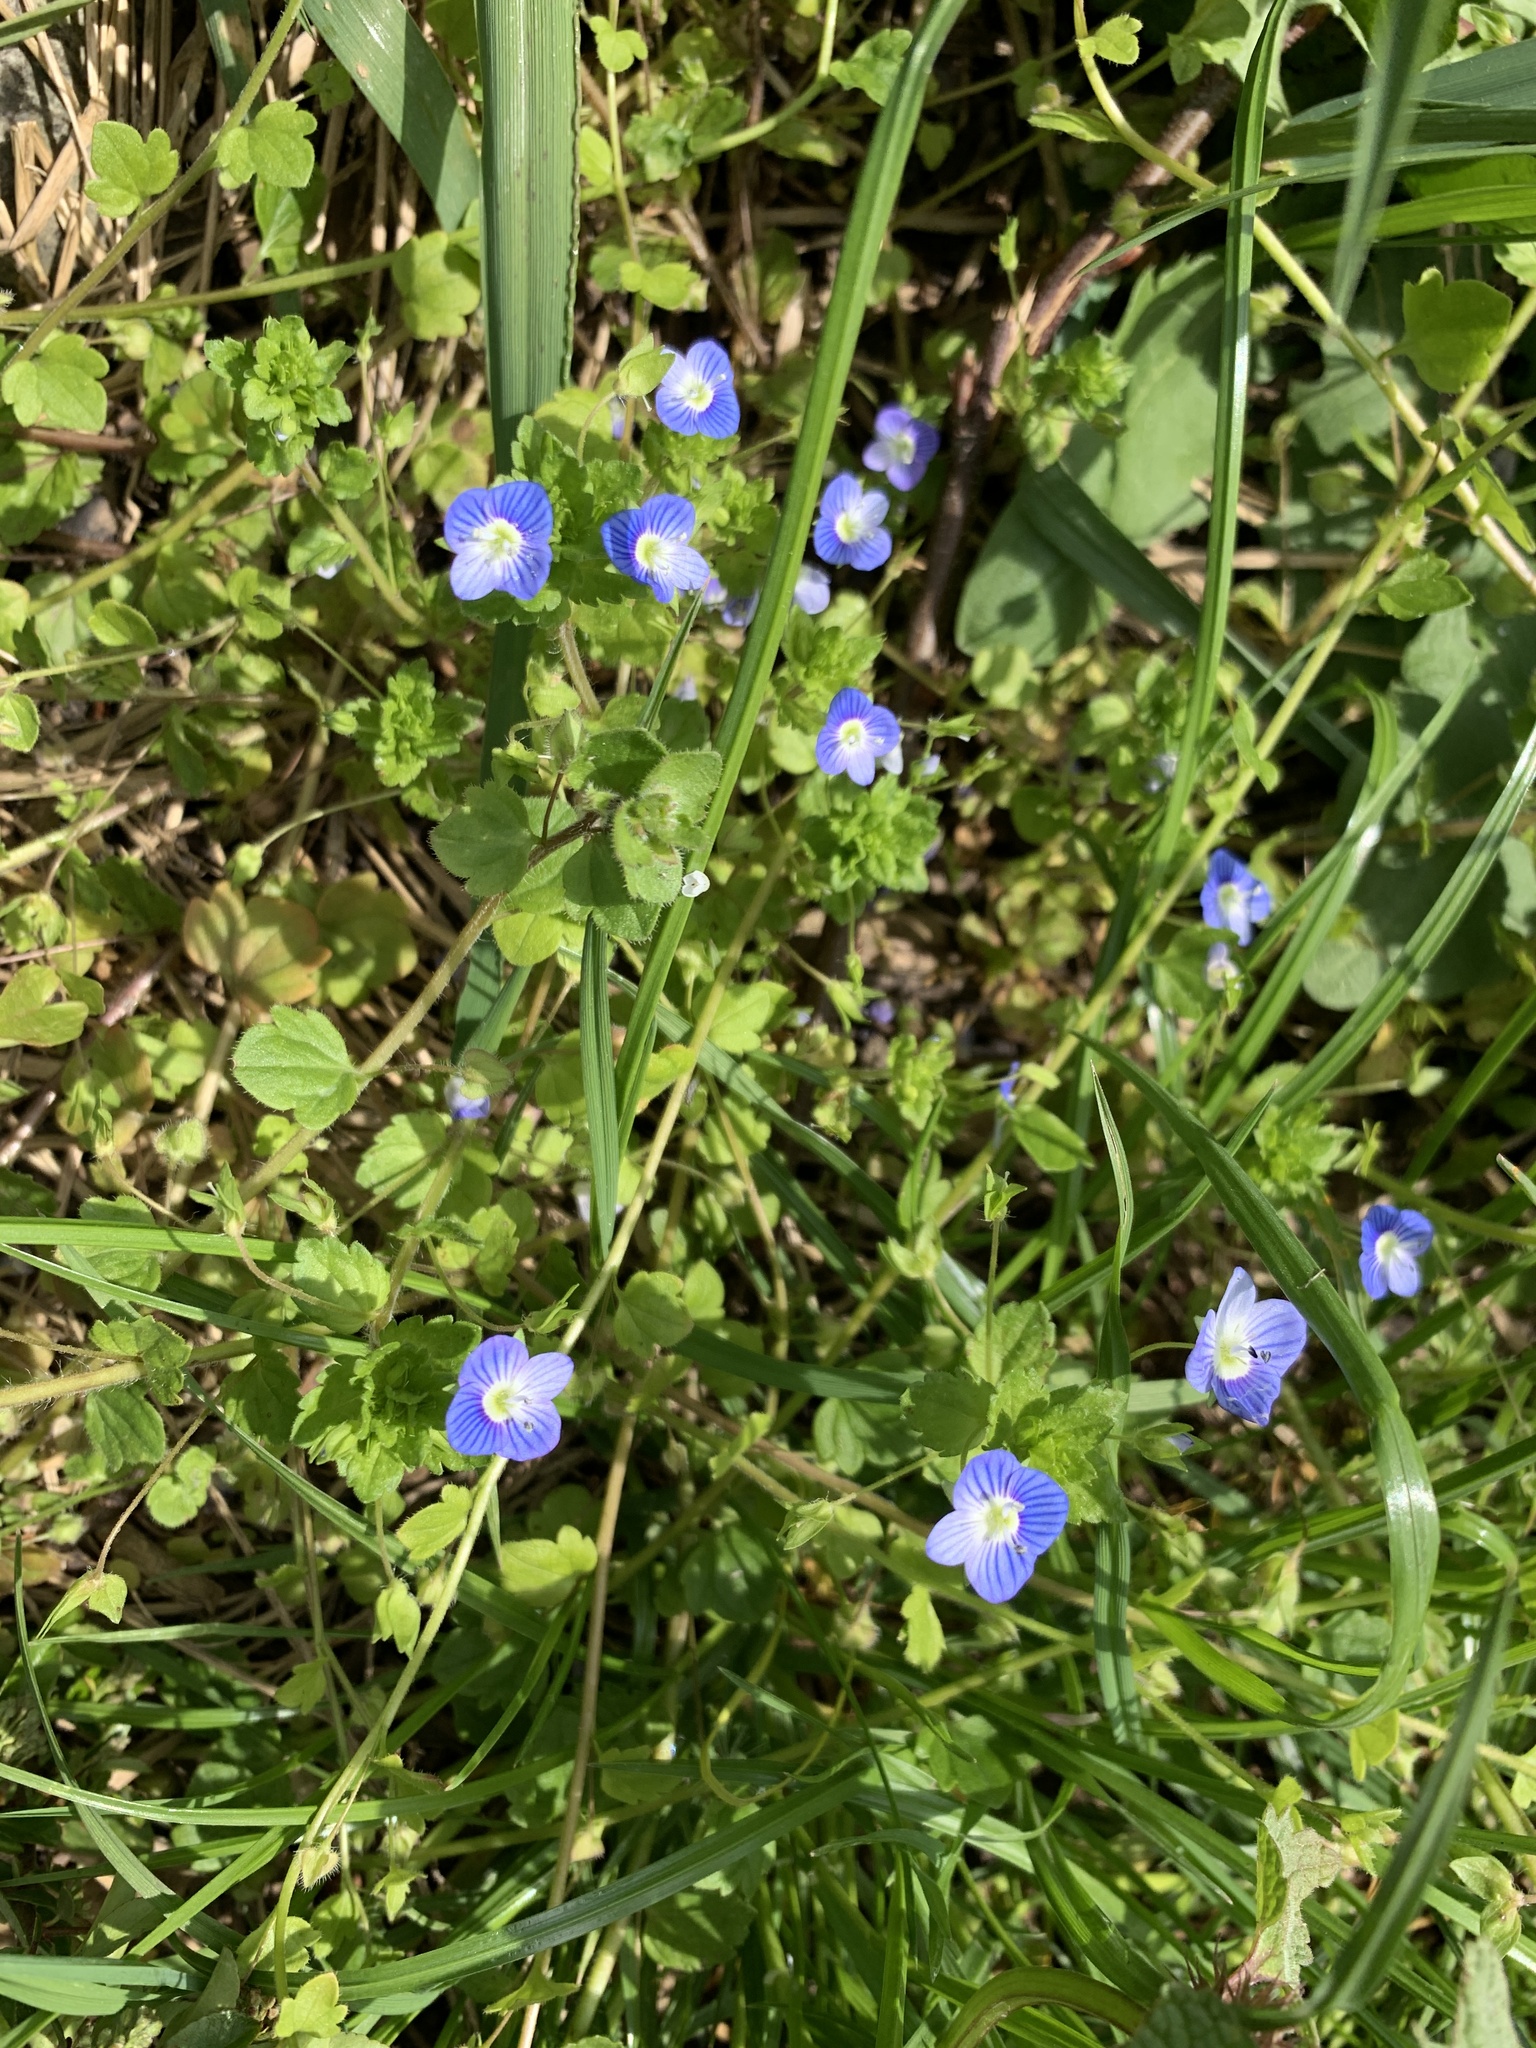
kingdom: Plantae
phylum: Tracheophyta
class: Magnoliopsida
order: Lamiales
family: Plantaginaceae
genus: Veronica
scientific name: Veronica persica
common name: Common field-speedwell
